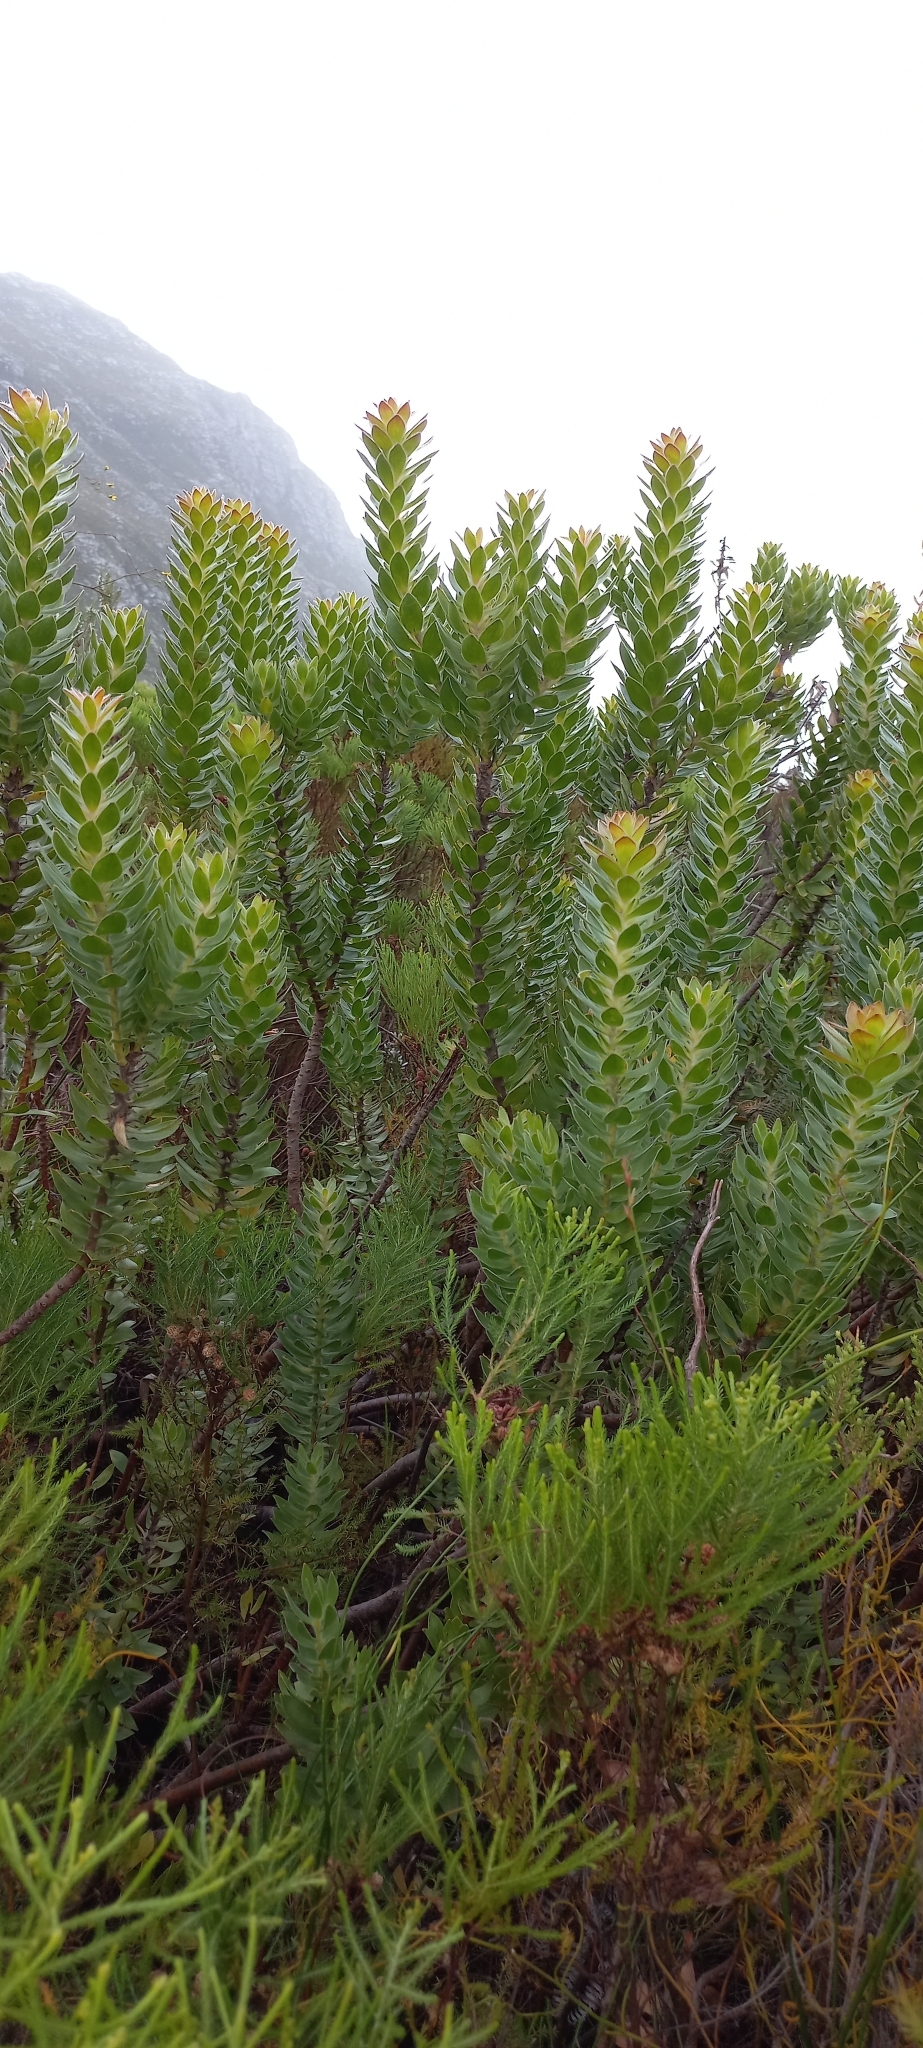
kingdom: Plantae
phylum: Tracheophyta
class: Magnoliopsida
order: Proteales
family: Proteaceae
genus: Mimetes
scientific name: Mimetes hirtus
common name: Marsh pagoda
